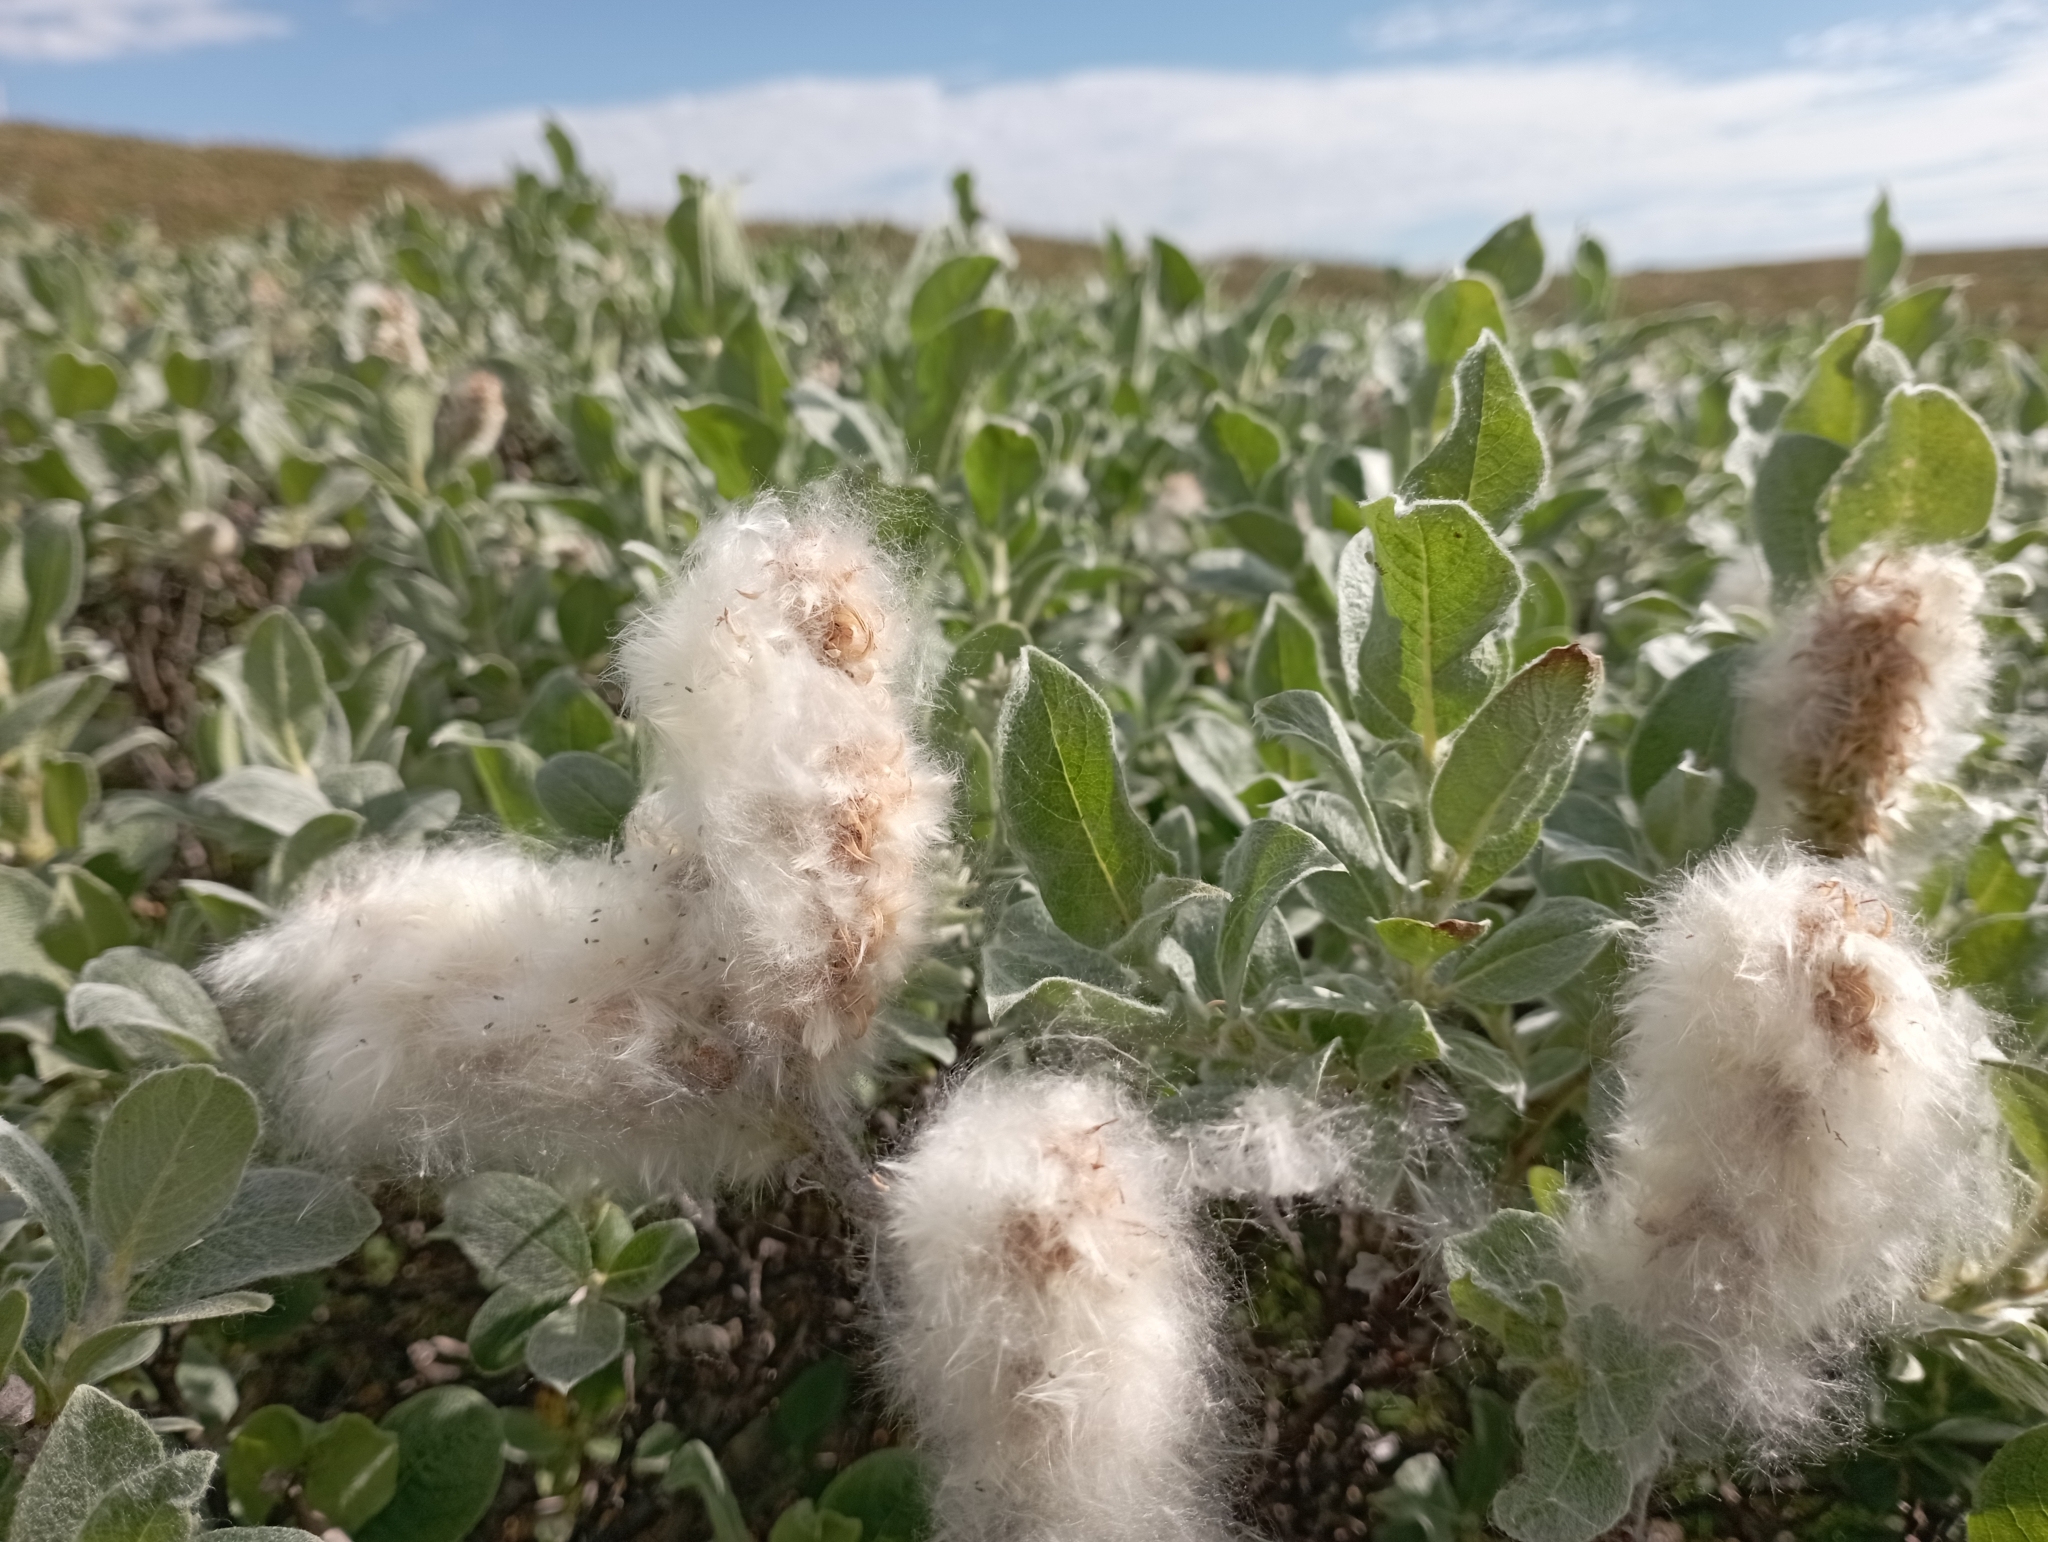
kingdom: Plantae
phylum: Tracheophyta
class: Magnoliopsida
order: Malpighiales
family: Salicaceae
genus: Salix
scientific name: Salix glauca
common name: Glaucous willow
